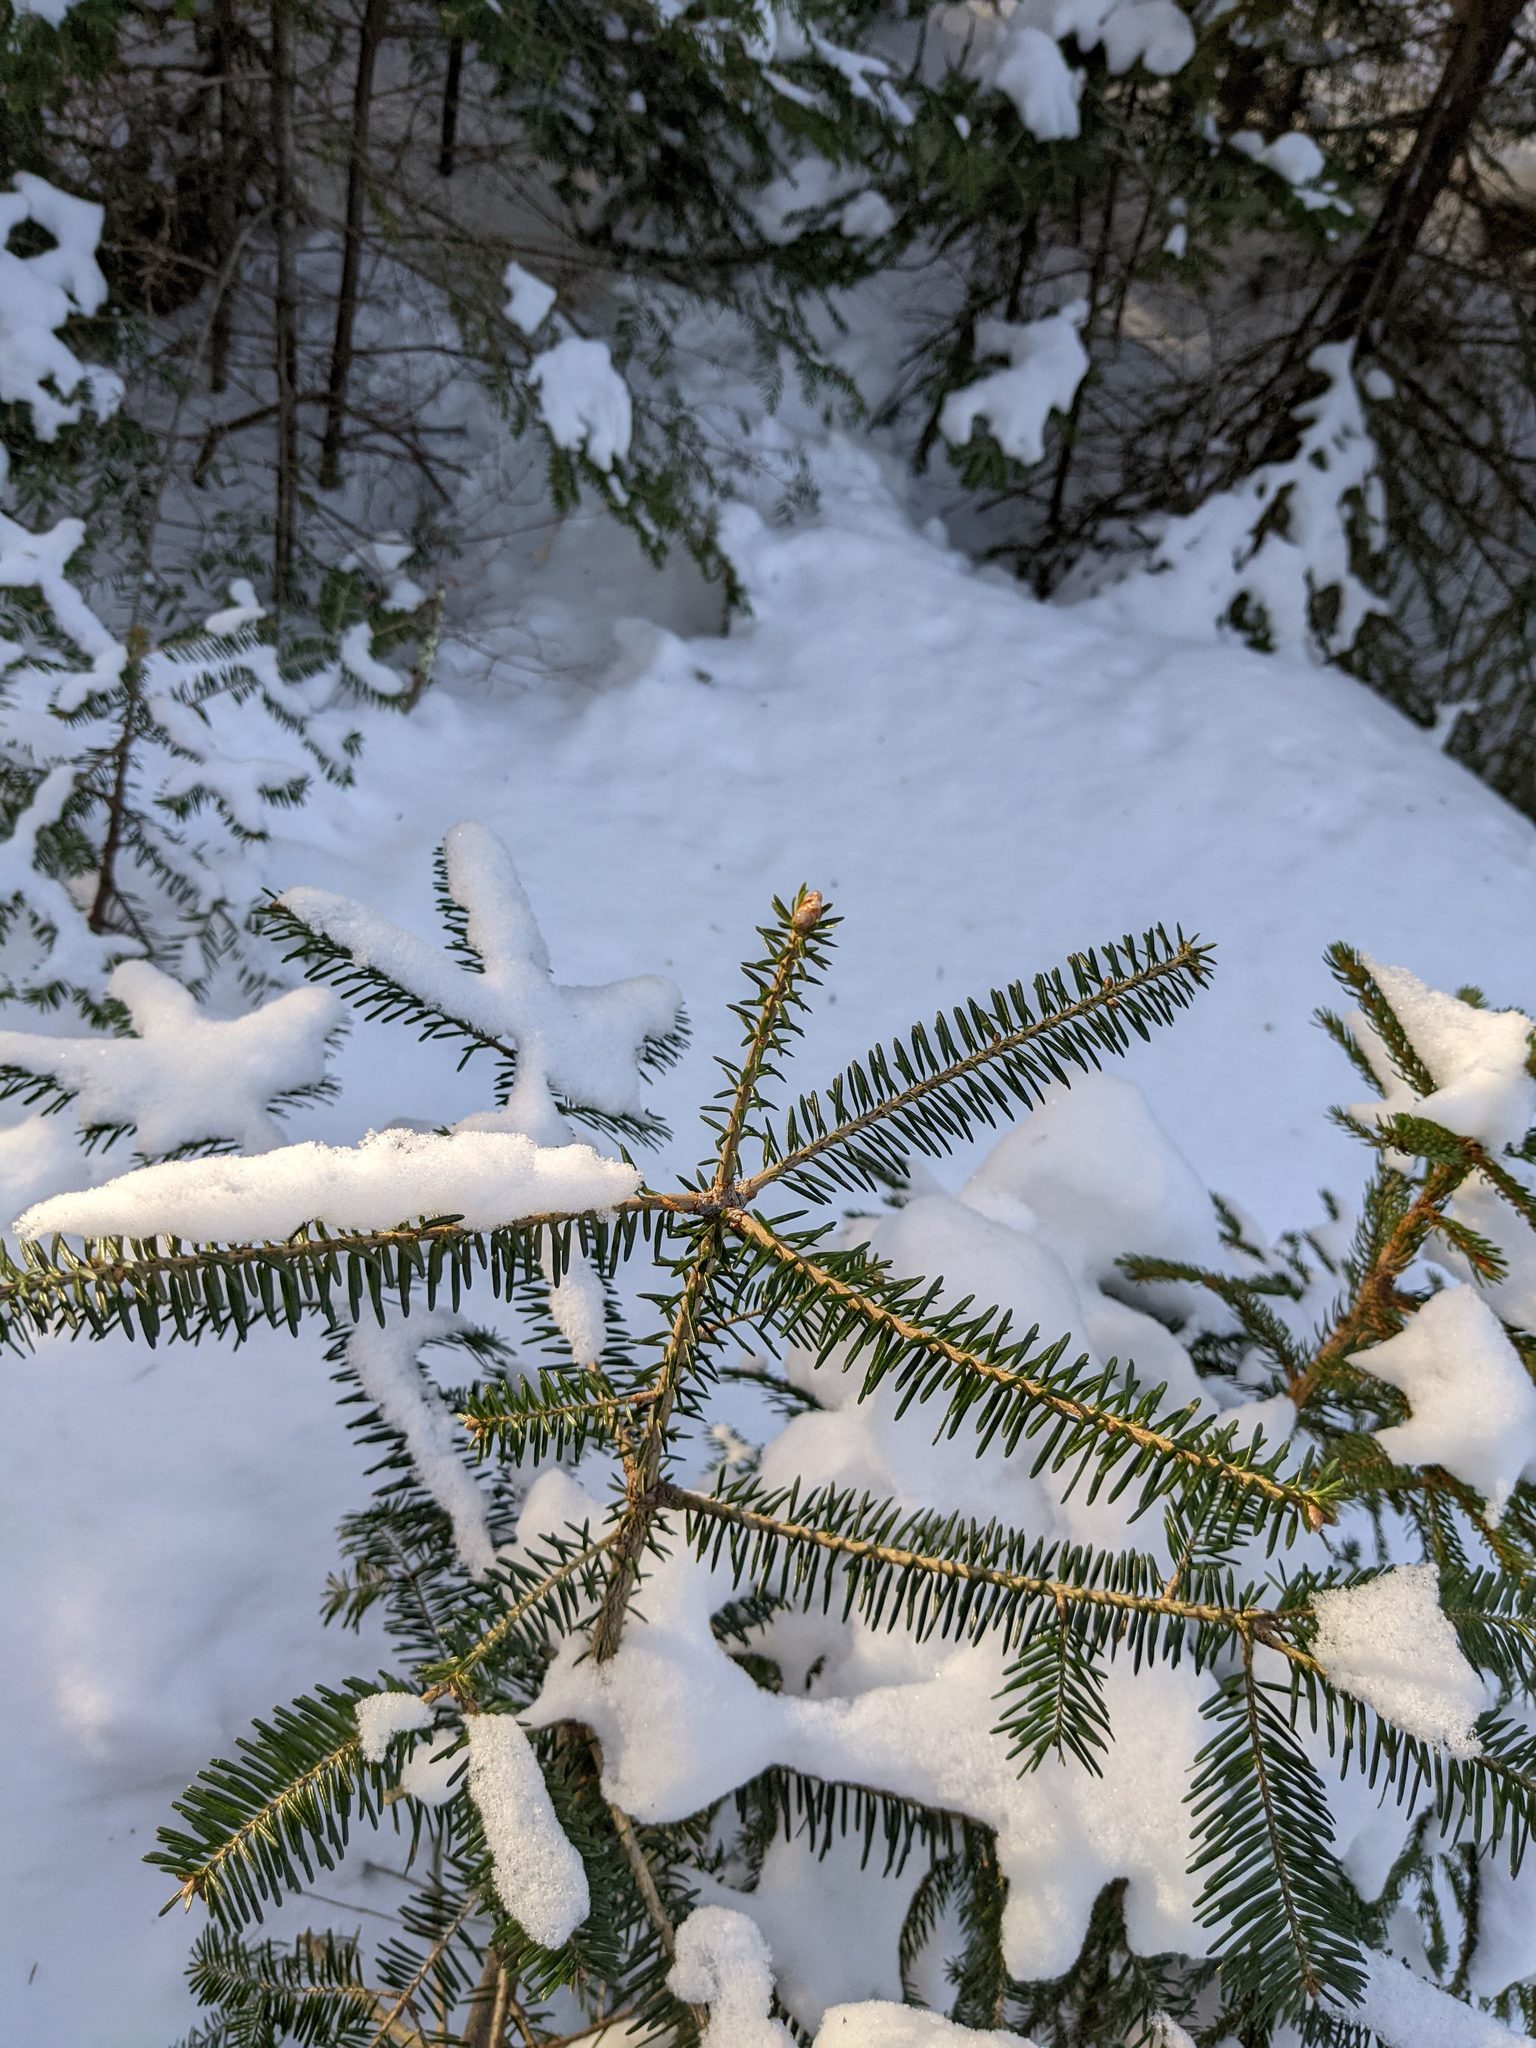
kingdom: Plantae
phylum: Tracheophyta
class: Pinopsida
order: Pinales
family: Pinaceae
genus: Abies
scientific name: Abies balsamea
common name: Balsam fir
